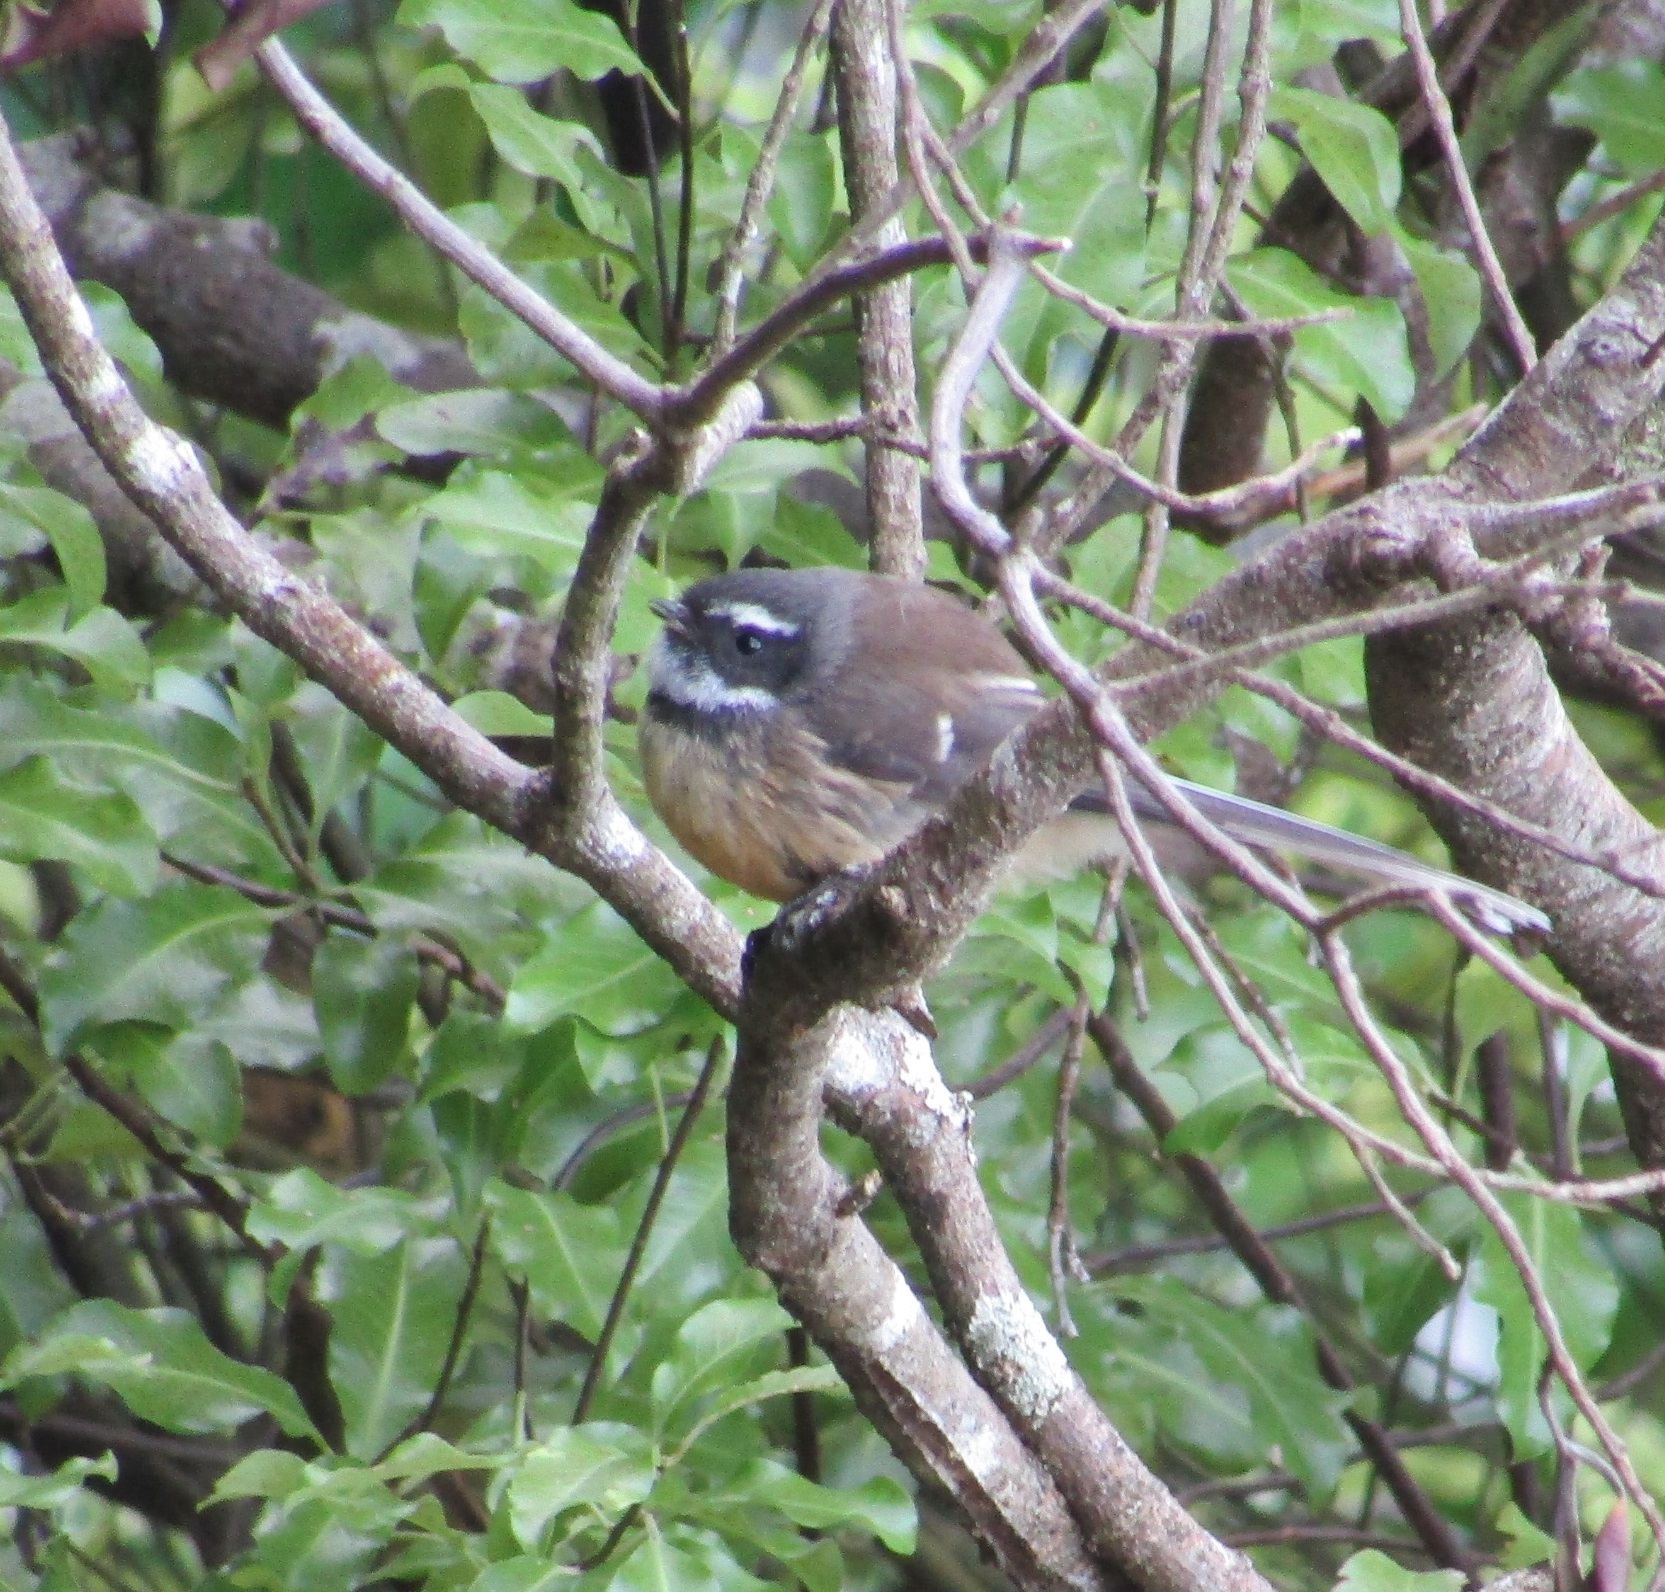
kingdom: Animalia
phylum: Chordata
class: Aves
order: Passeriformes
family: Rhipiduridae
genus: Rhipidura
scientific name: Rhipidura fuliginosa
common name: New zealand fantail
